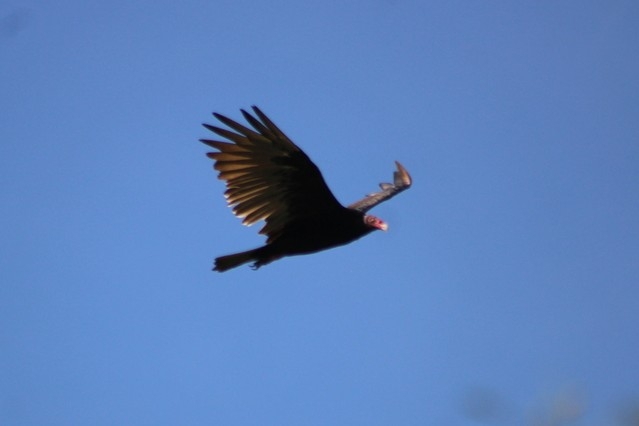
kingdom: Animalia
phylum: Chordata
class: Aves
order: Accipitriformes
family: Cathartidae
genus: Cathartes
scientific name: Cathartes aura
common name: Turkey vulture
